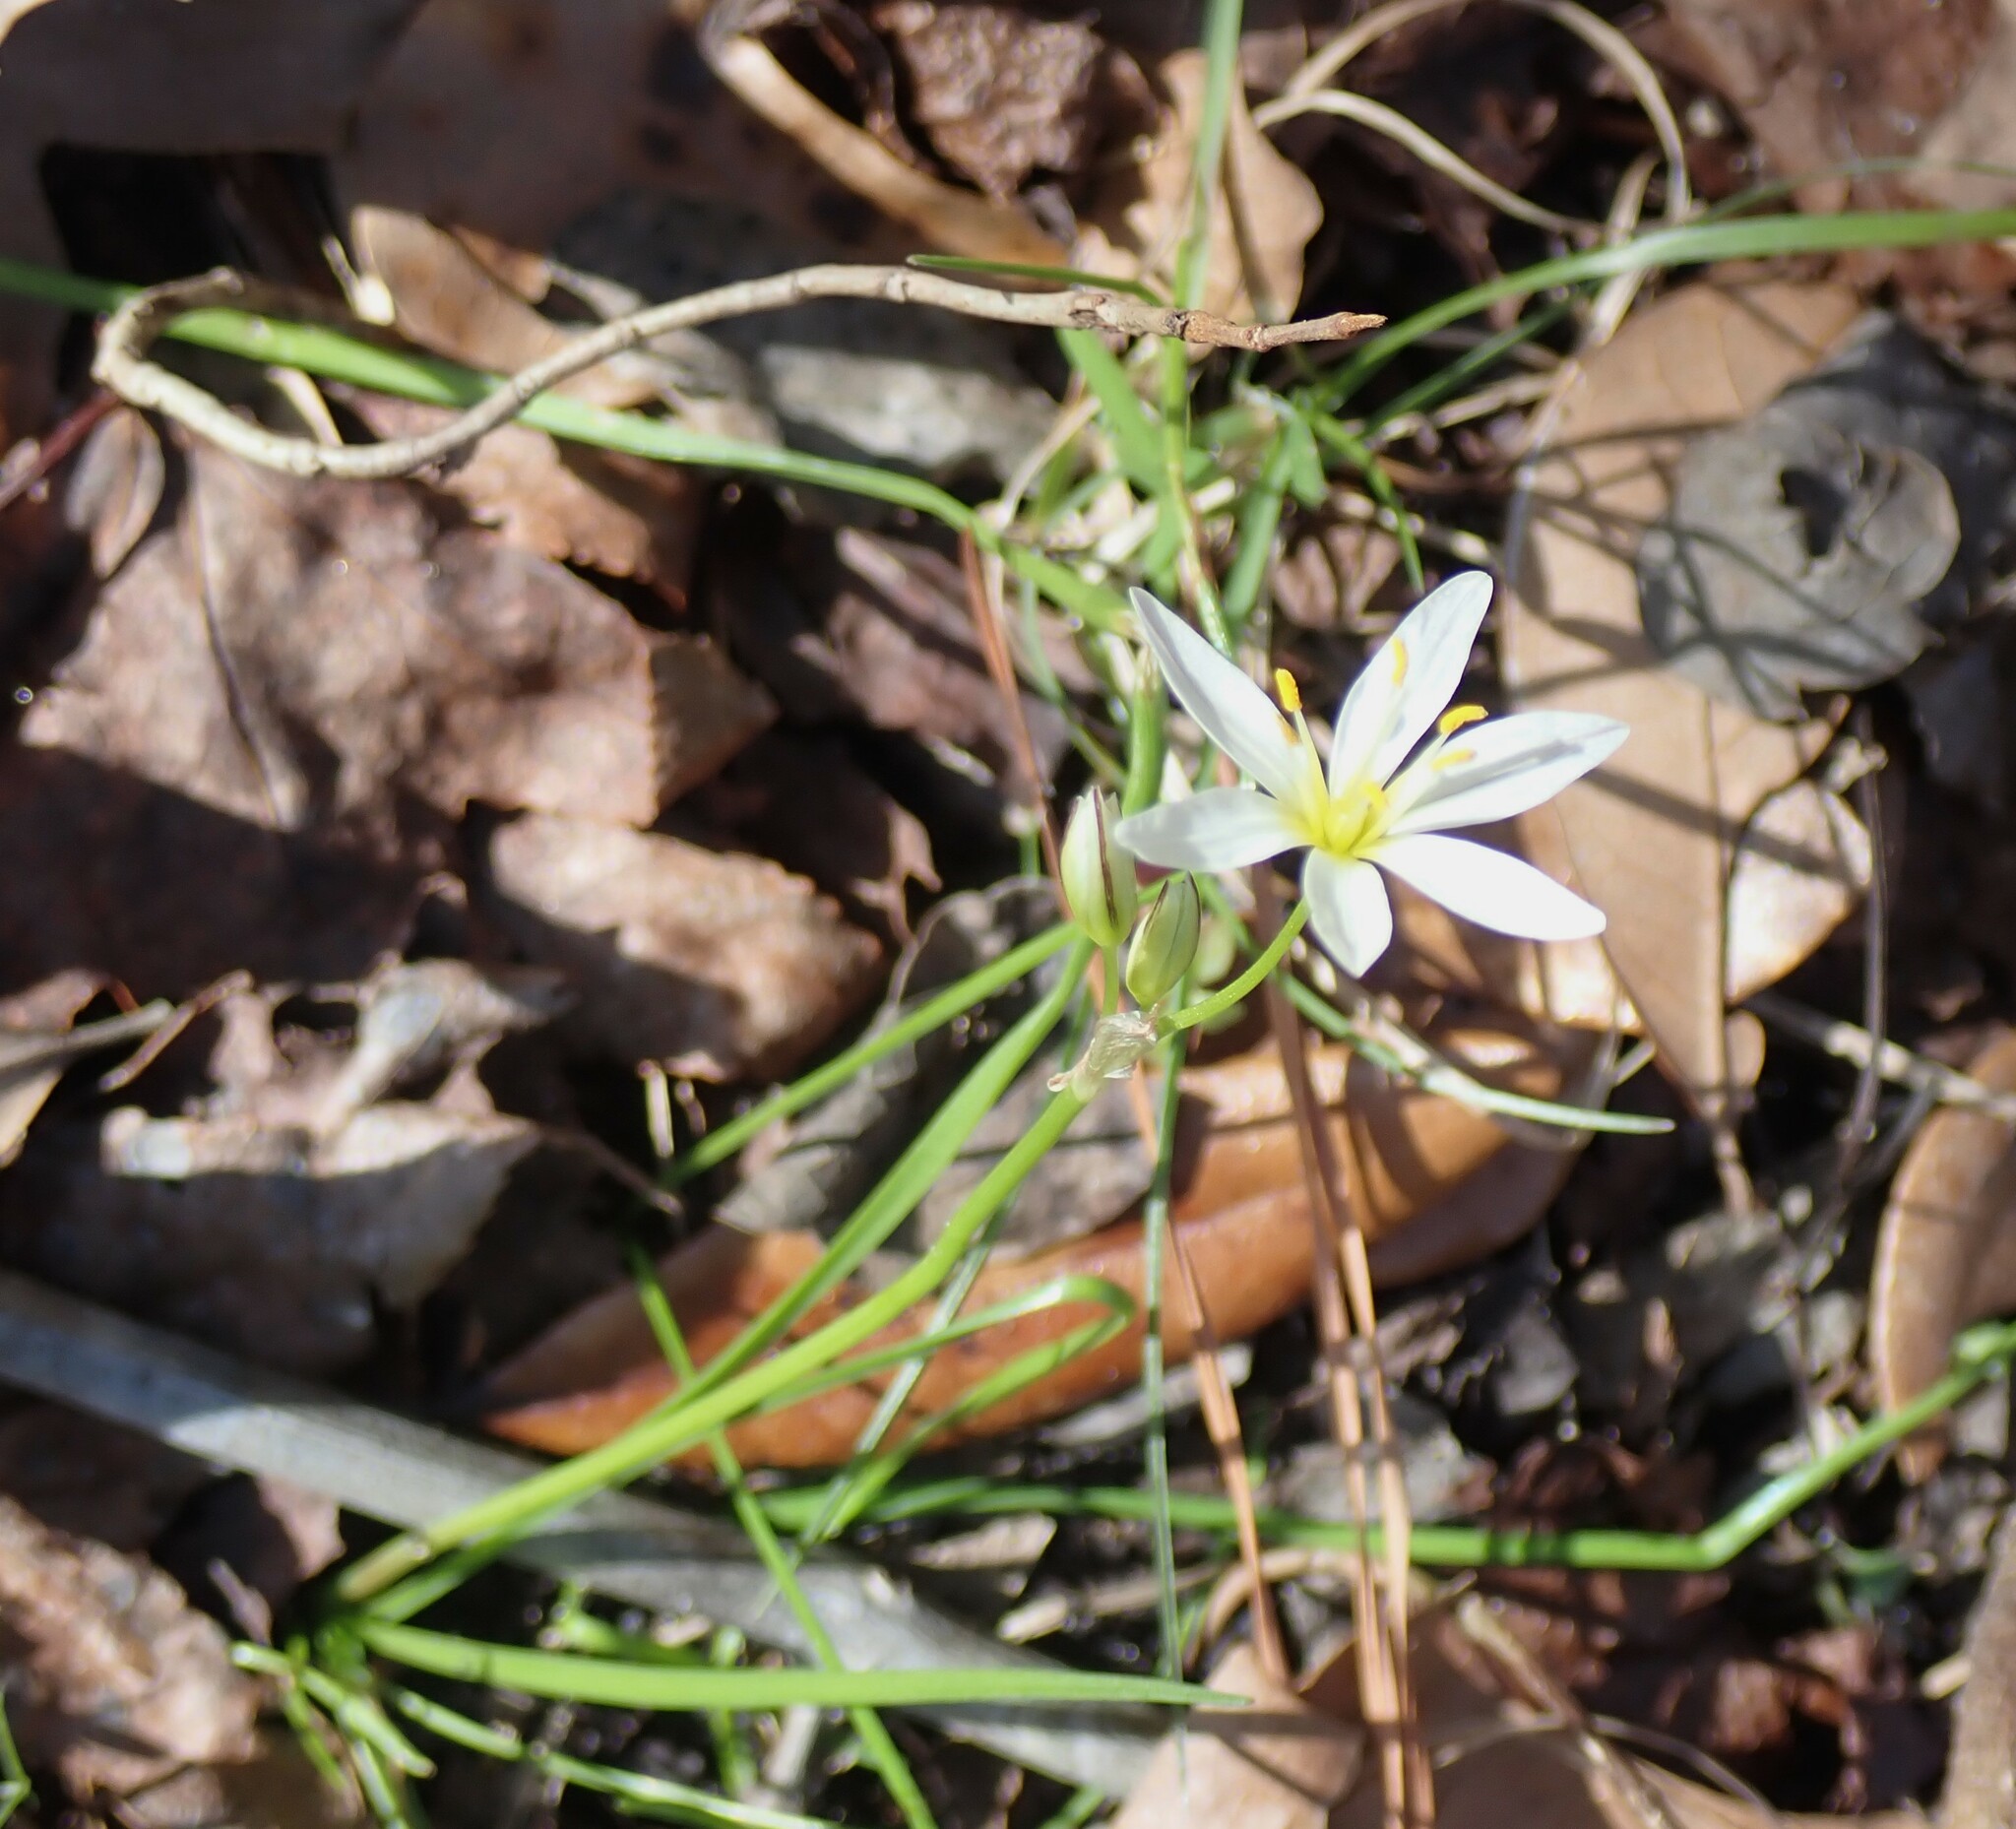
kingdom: Plantae
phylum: Tracheophyta
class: Liliopsida
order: Asparagales
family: Amaryllidaceae
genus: Nothoscordum
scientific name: Nothoscordum bivalve
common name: Crow-poison
